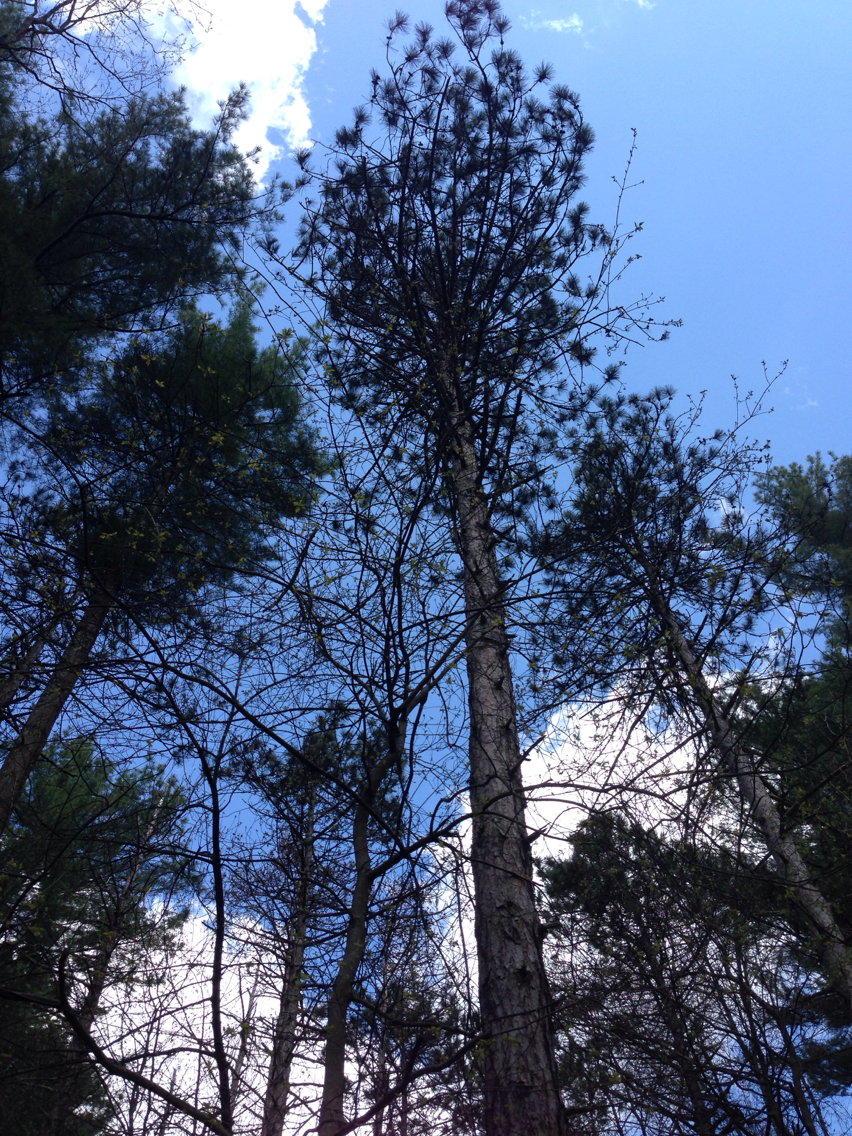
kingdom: Plantae
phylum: Tracheophyta
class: Pinopsida
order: Pinales
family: Pinaceae
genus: Pinus
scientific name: Pinus resinosa
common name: Norway pine
